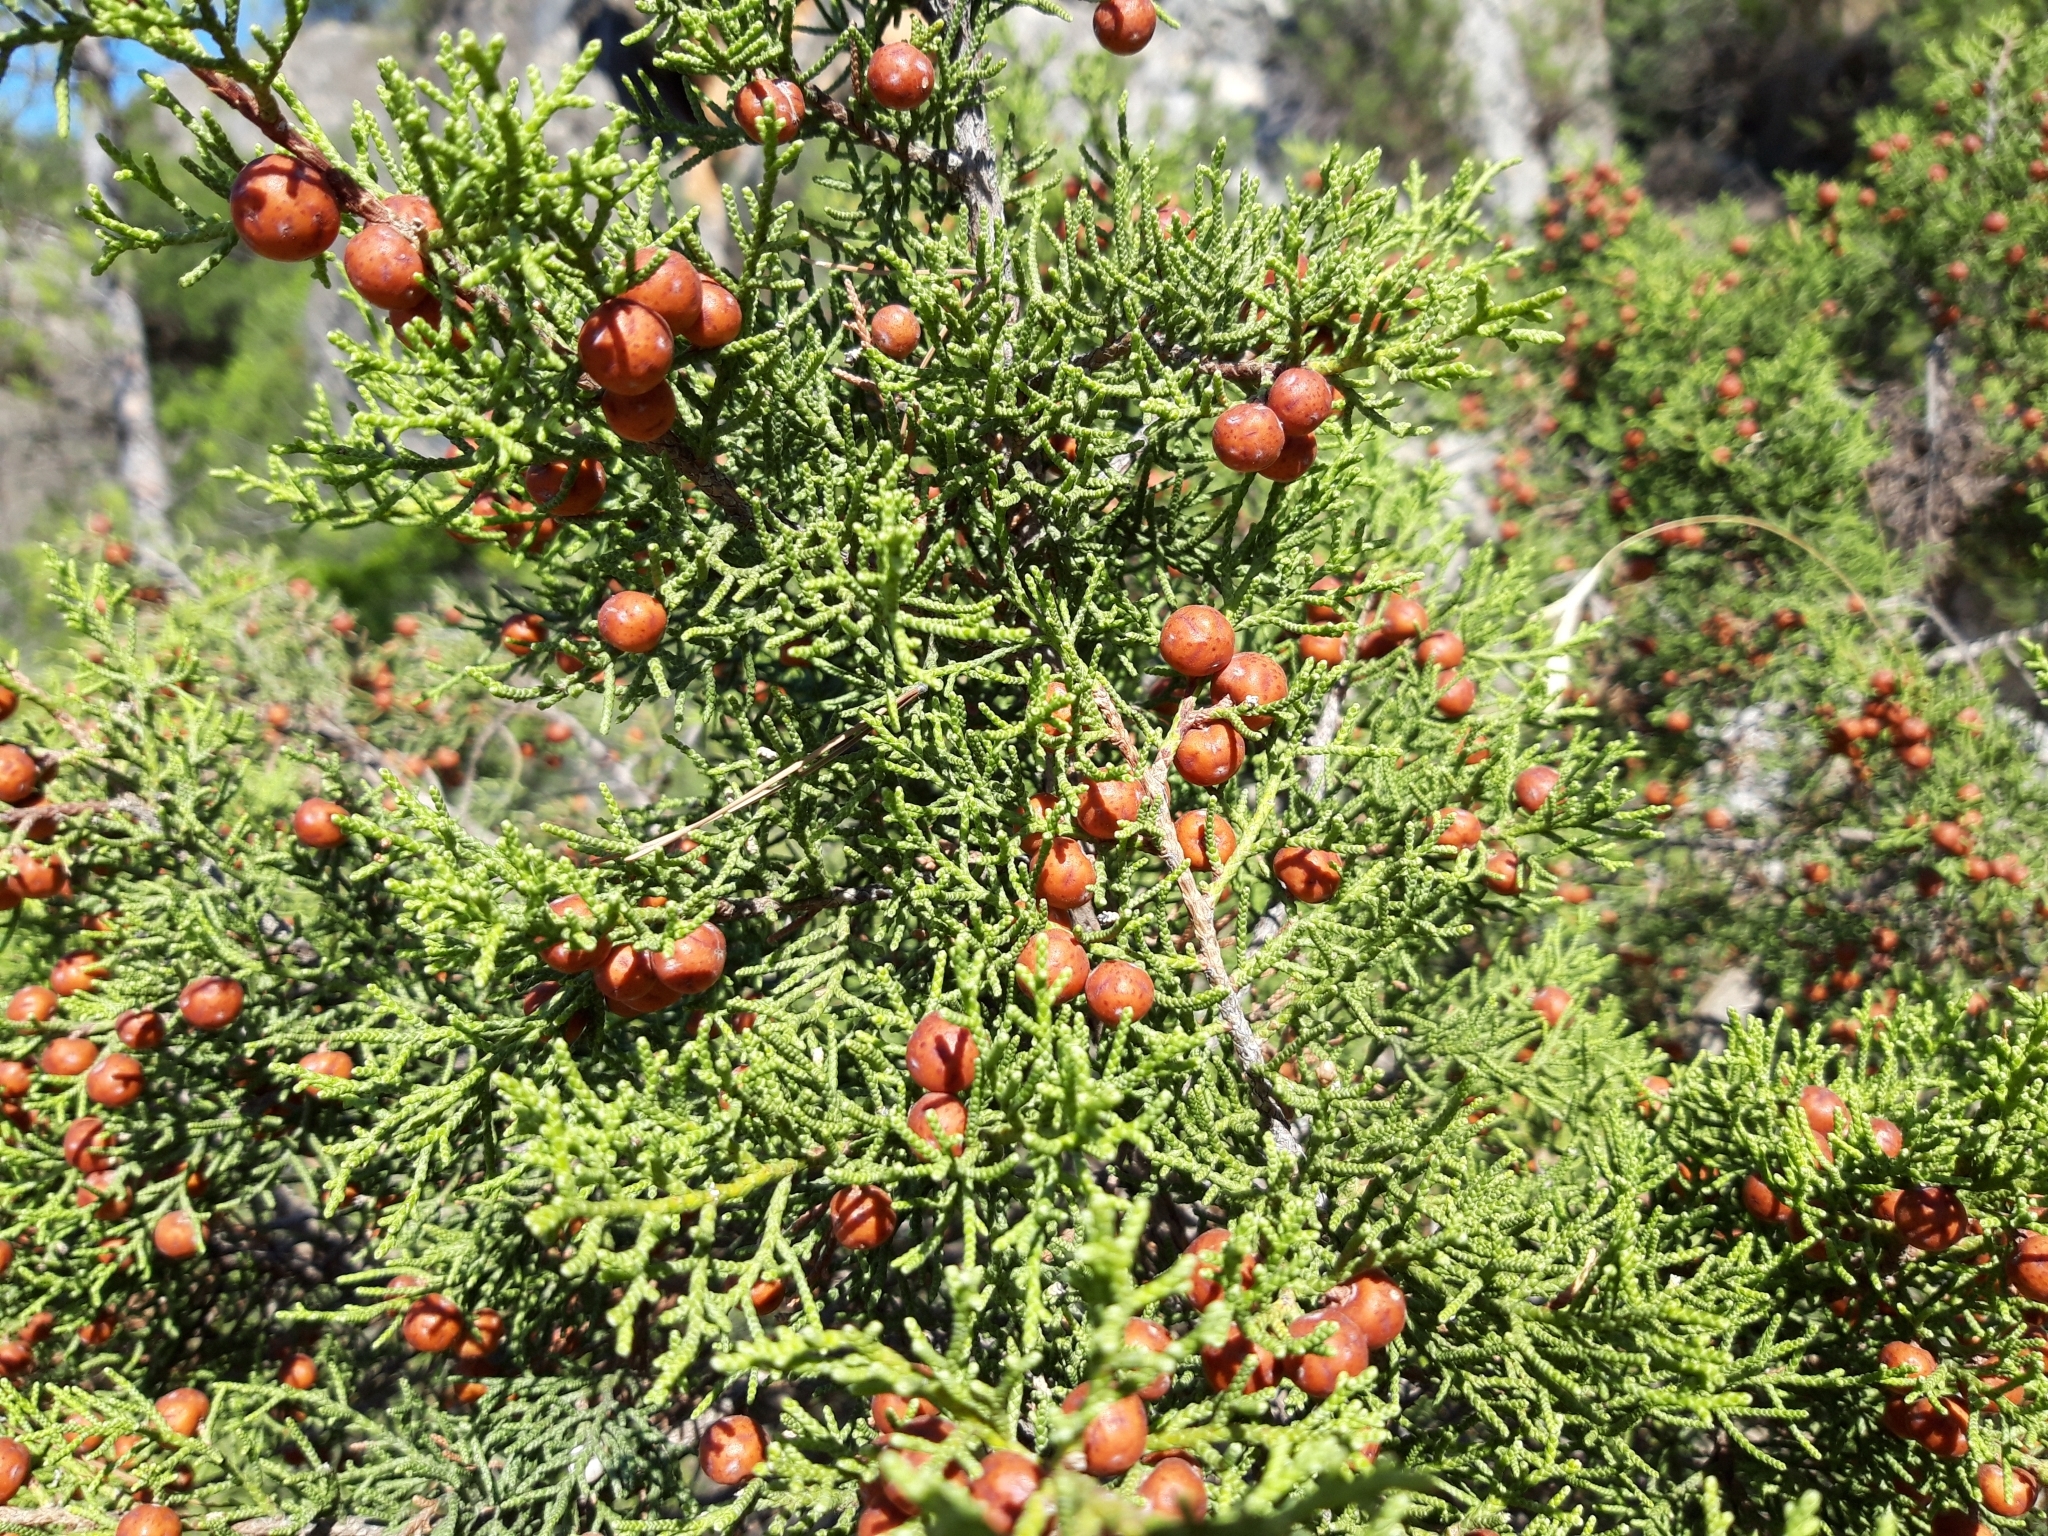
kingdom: Plantae
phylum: Tracheophyta
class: Pinopsida
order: Pinales
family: Cupressaceae
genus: Juniperus
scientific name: Juniperus phoenicea
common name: Phoenician juniper
